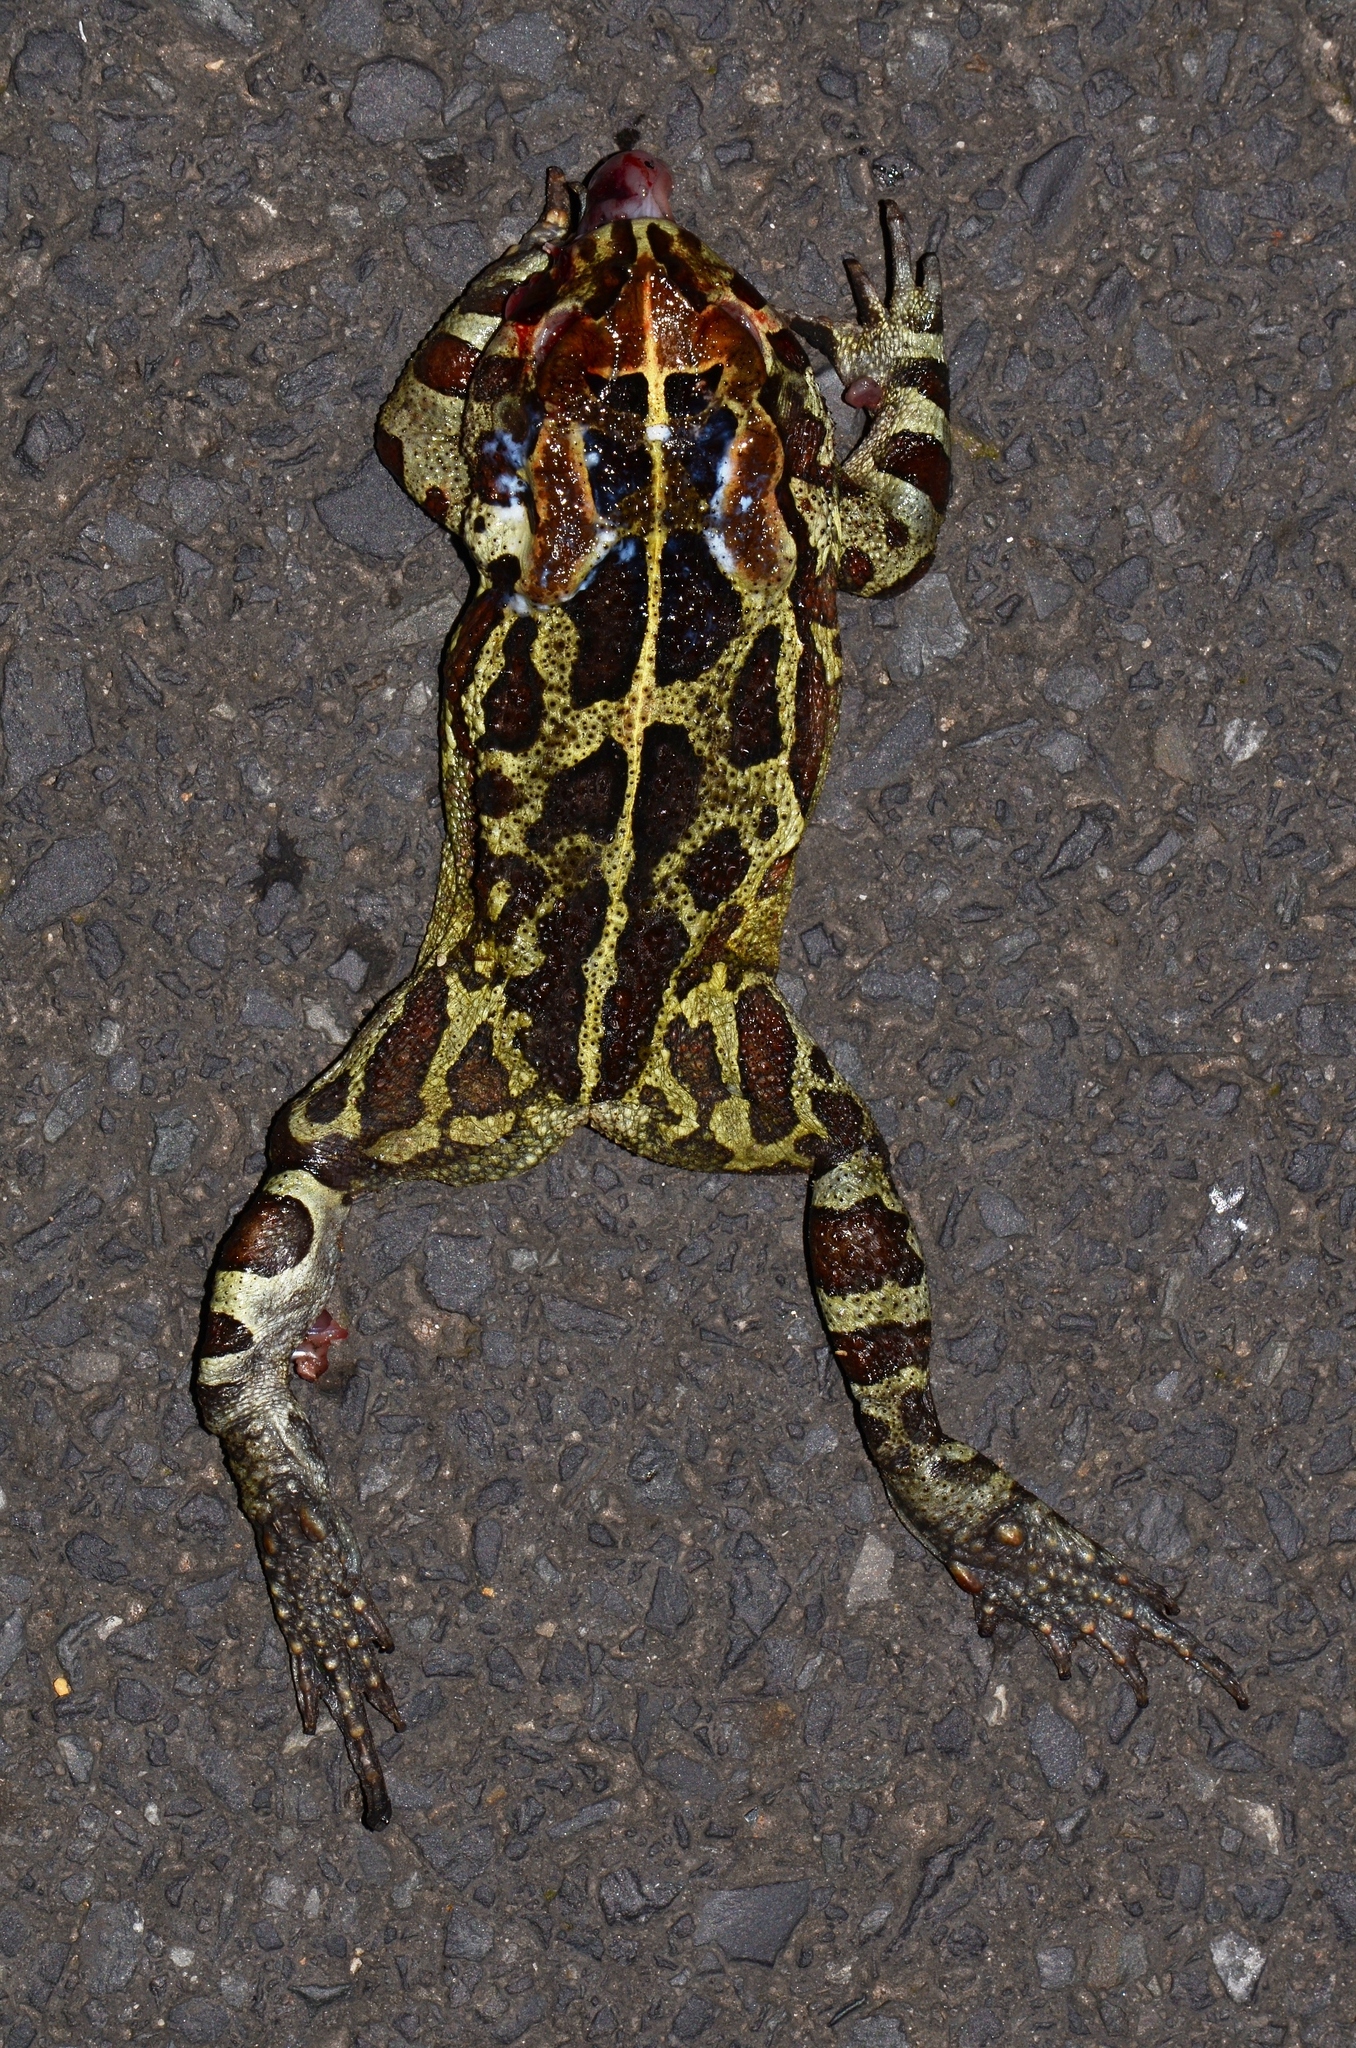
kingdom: Animalia
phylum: Chordata
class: Amphibia
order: Anura
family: Bufonidae
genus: Sclerophrys
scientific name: Sclerophrys pantherina
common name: Panther toad
